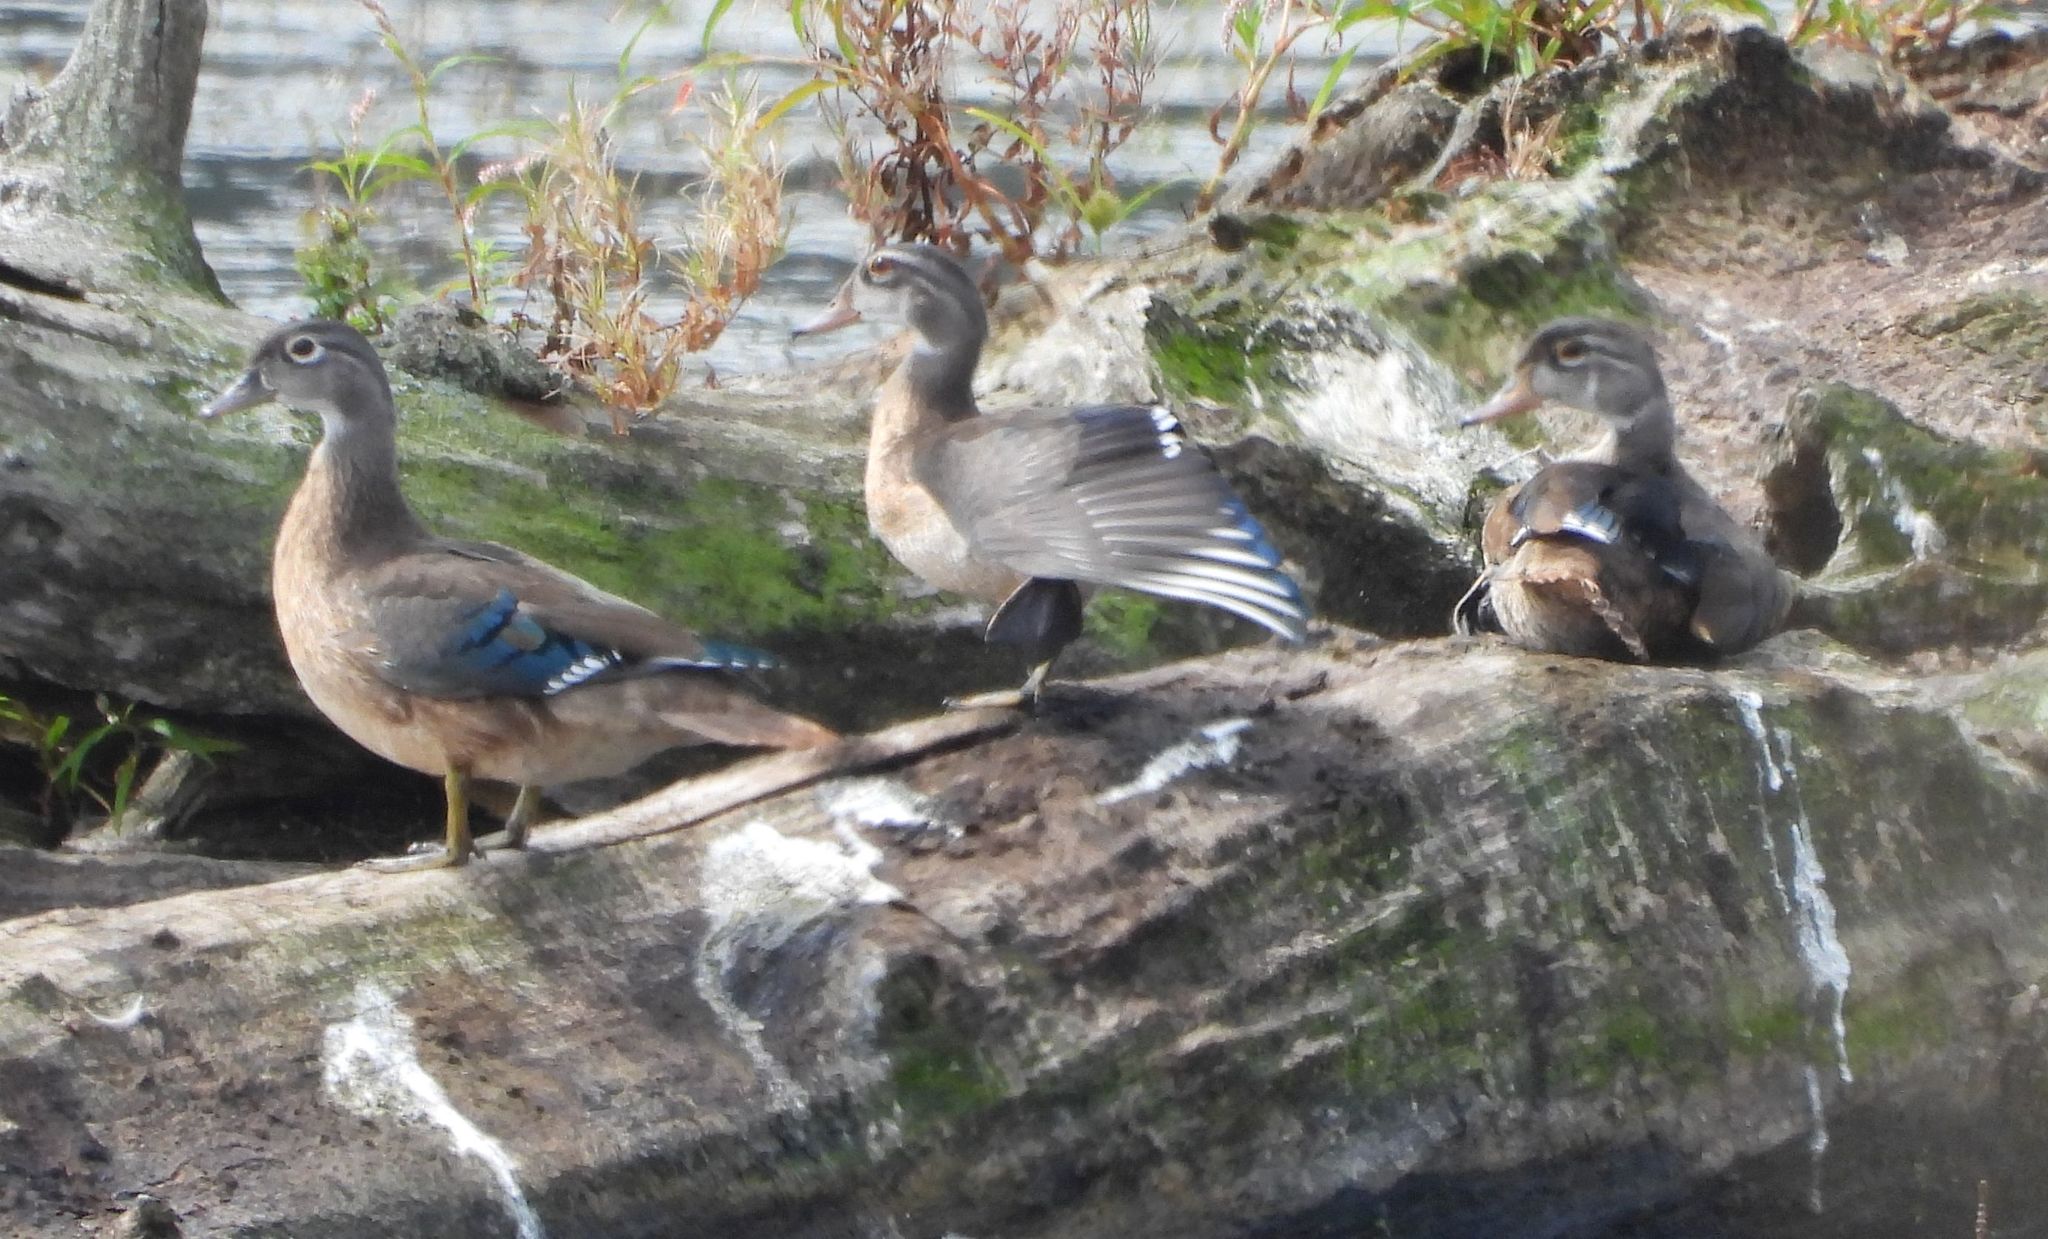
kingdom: Animalia
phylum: Chordata
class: Aves
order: Anseriformes
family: Anatidae
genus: Aix
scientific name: Aix sponsa
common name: Wood duck
